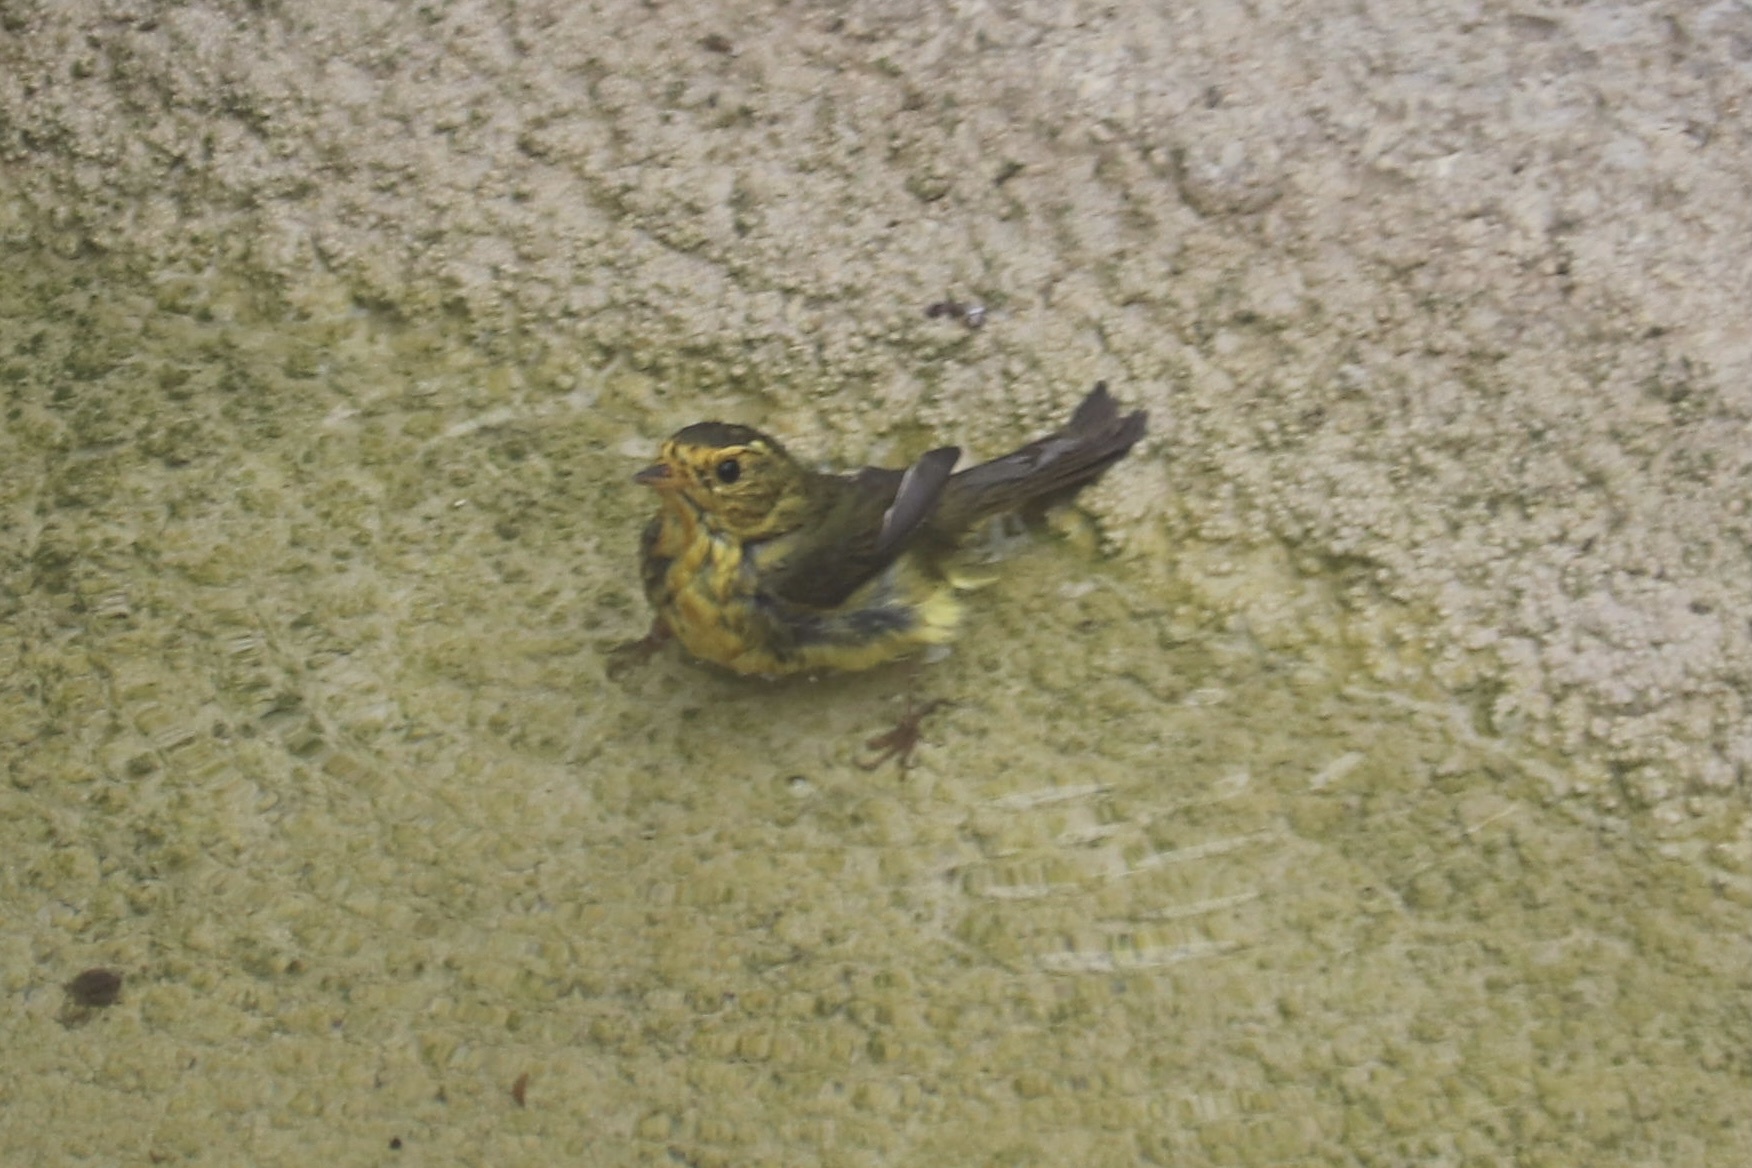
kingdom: Animalia
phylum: Chordata
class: Aves
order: Passeriformes
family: Parulidae
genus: Cardellina
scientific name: Cardellina pusilla
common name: Wilson's warbler
